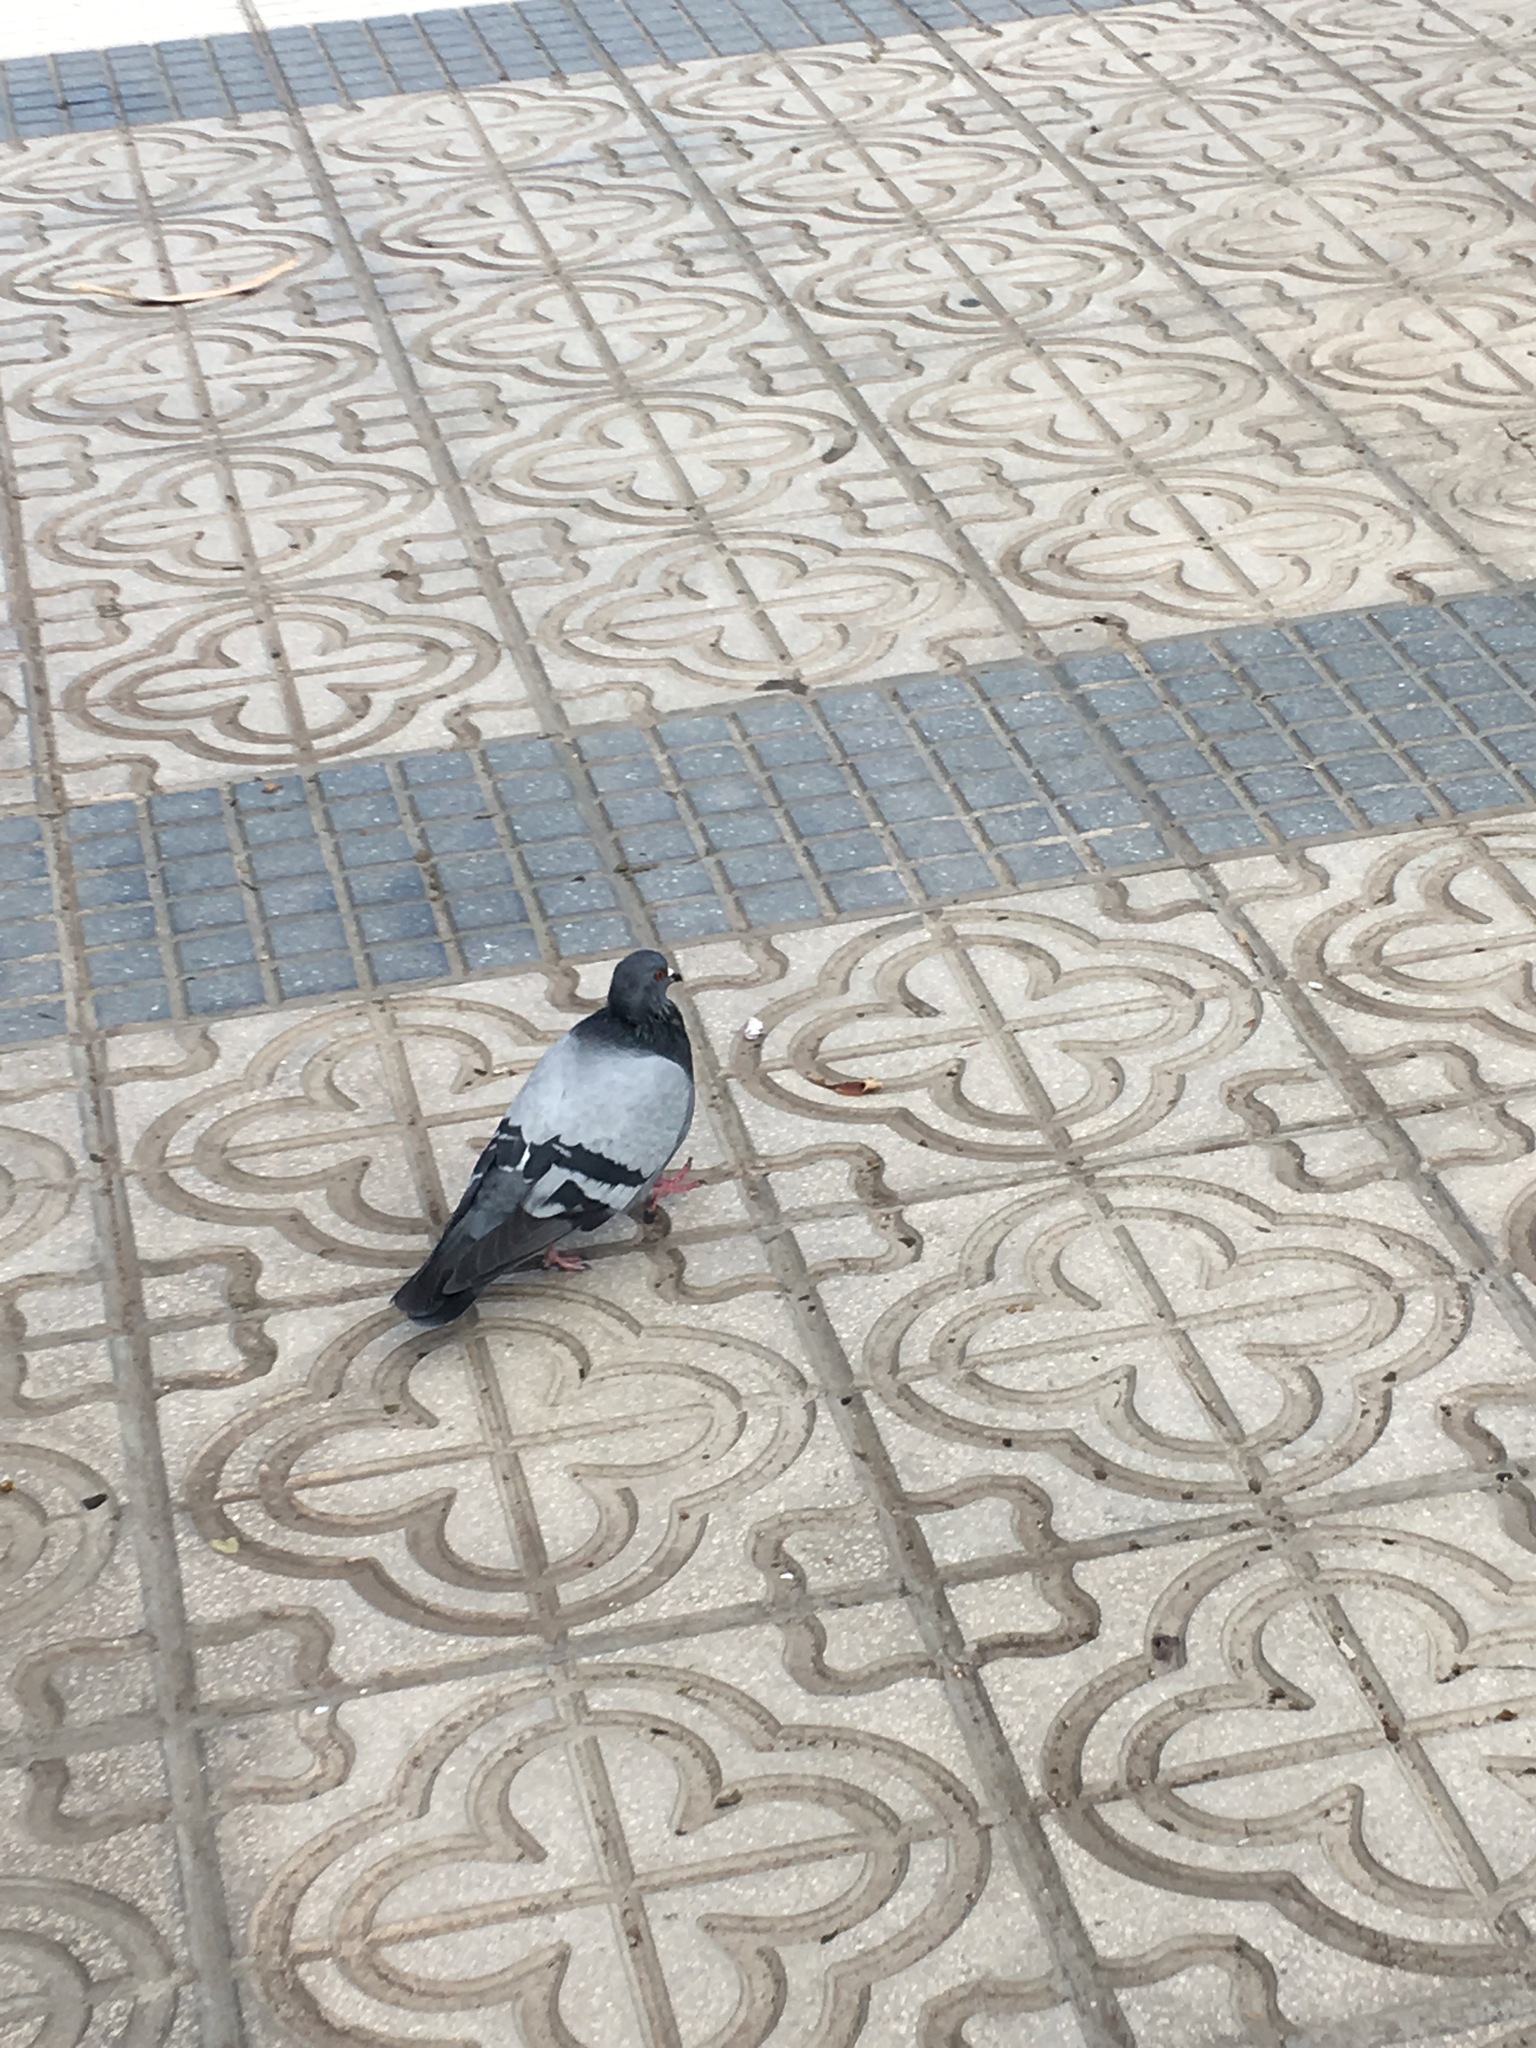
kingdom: Animalia
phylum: Chordata
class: Aves
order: Columbiformes
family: Columbidae
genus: Columba
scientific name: Columba livia
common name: Rock pigeon
